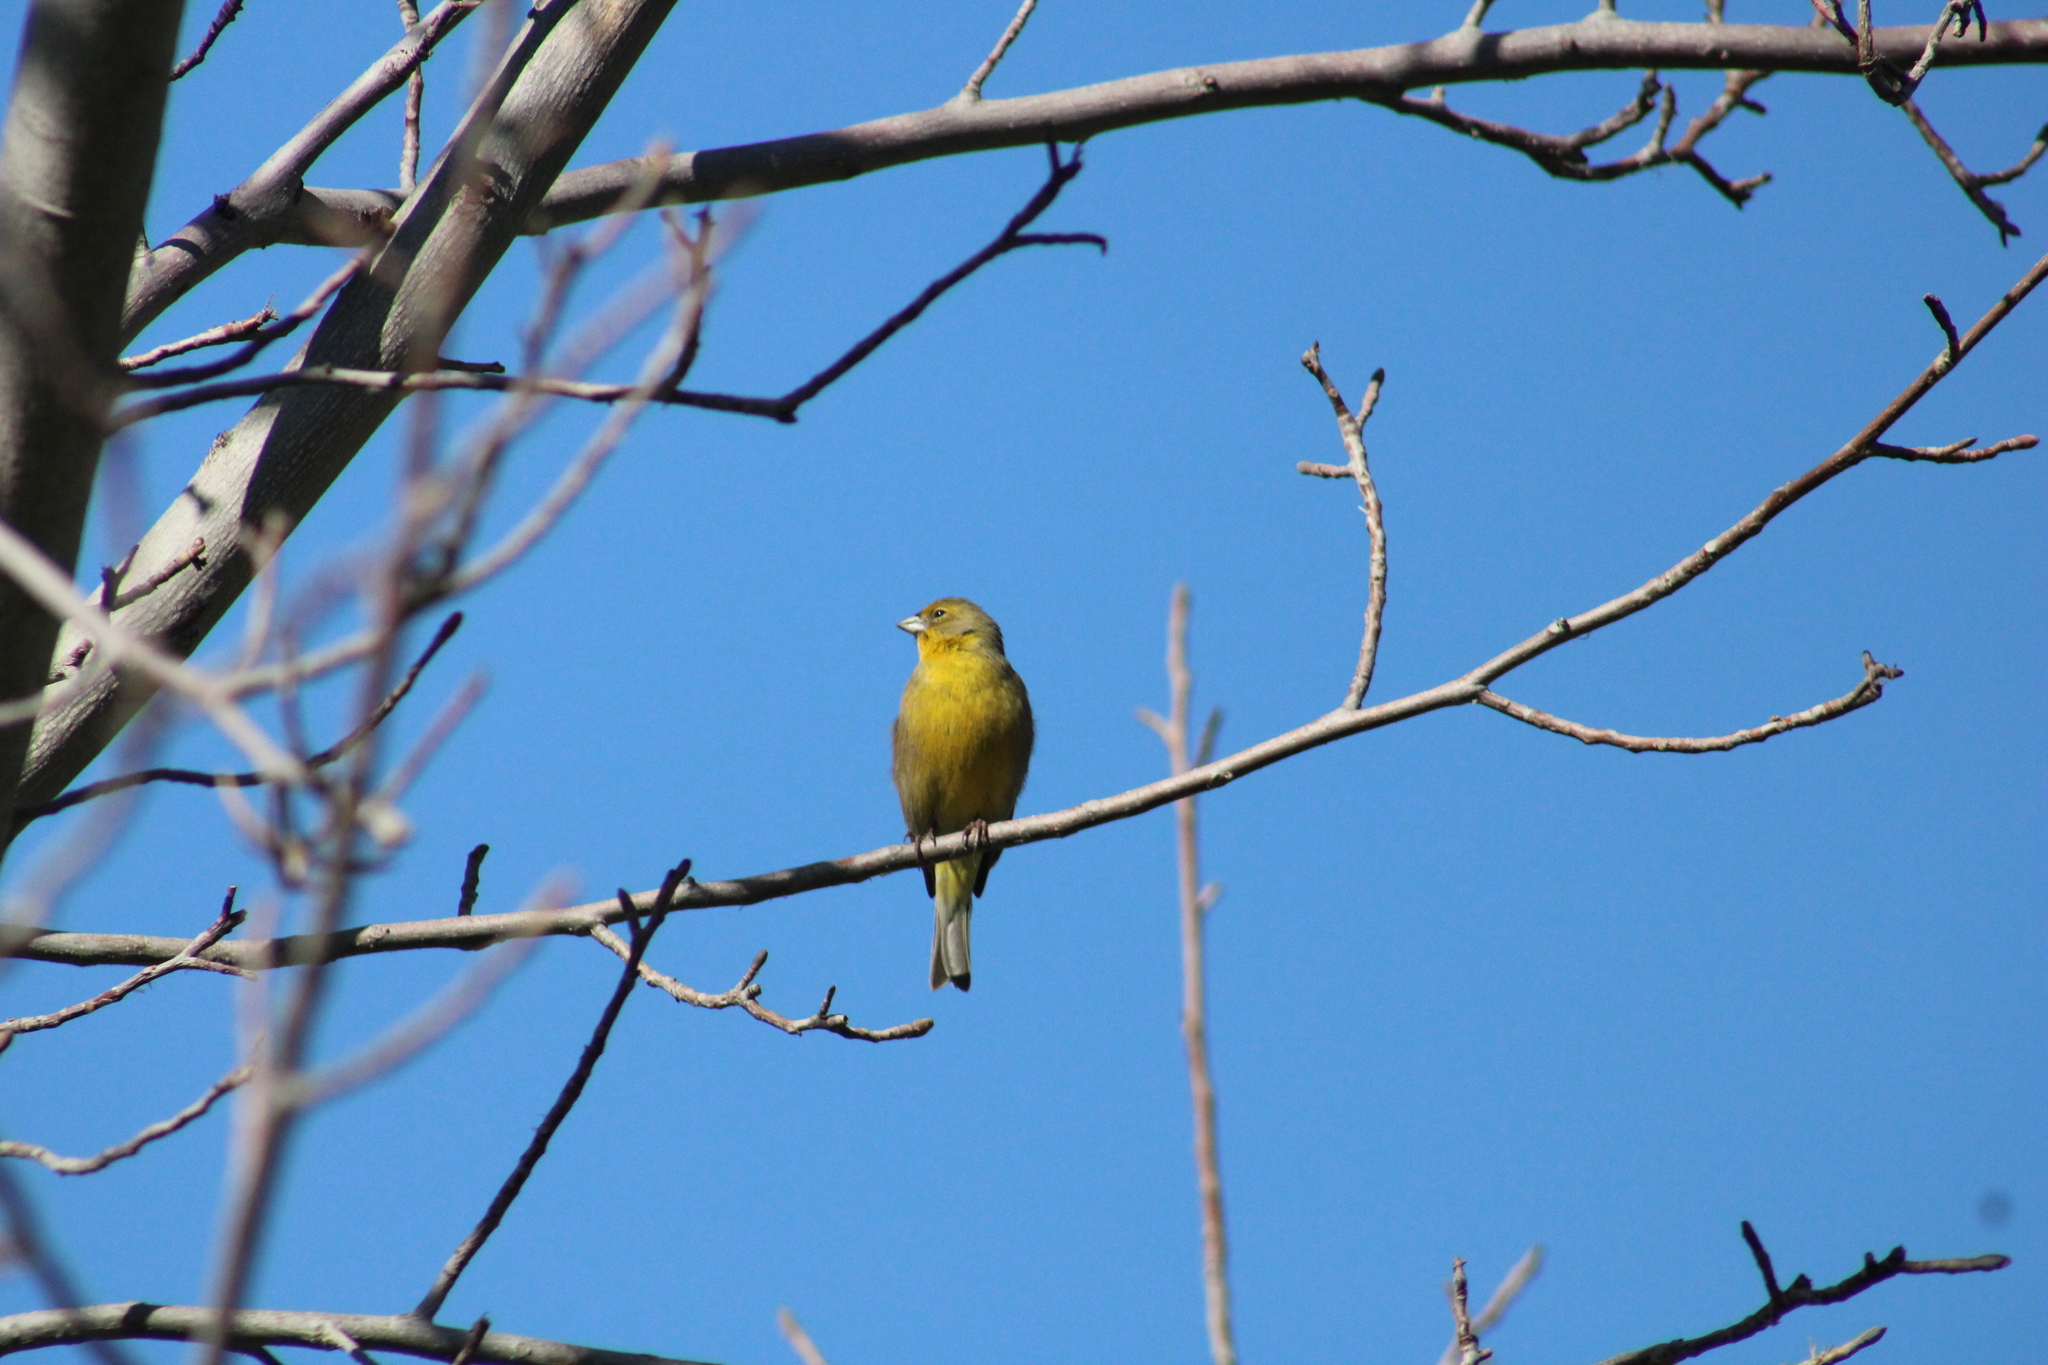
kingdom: Animalia
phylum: Chordata
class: Aves
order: Passeriformes
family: Thraupidae
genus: Sicalis
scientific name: Sicalis luteola
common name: Grassland yellow-finch
